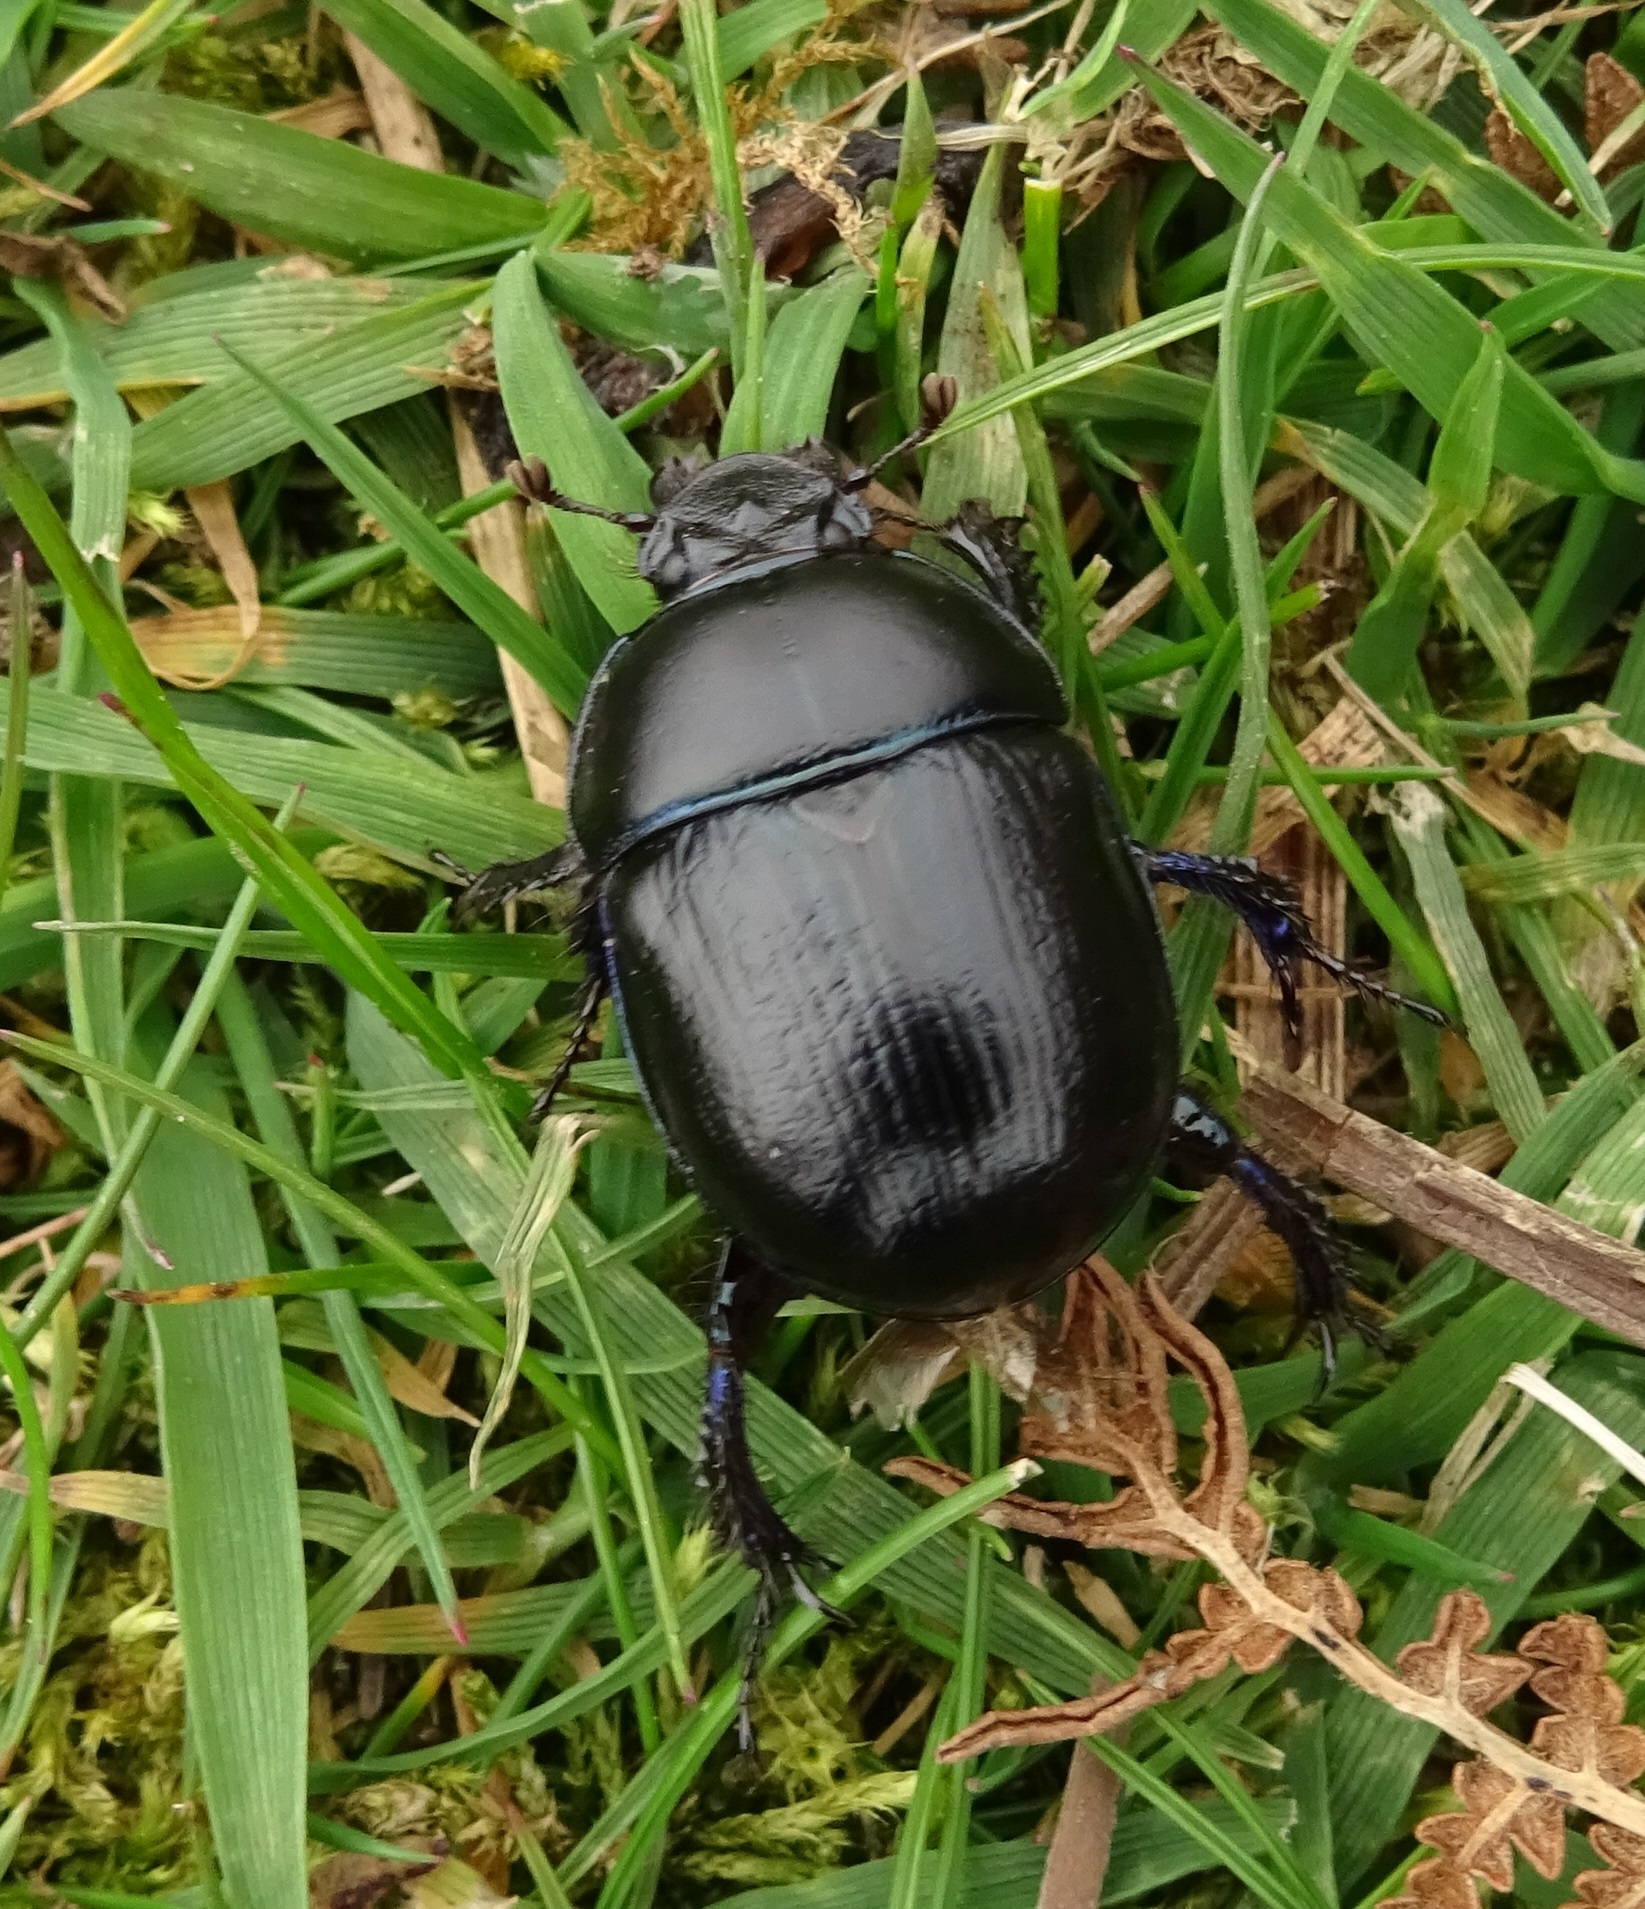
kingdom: Animalia
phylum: Arthropoda
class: Insecta
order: Coleoptera
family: Geotrupidae
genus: Anoplotrupes
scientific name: Anoplotrupes stercorosus
